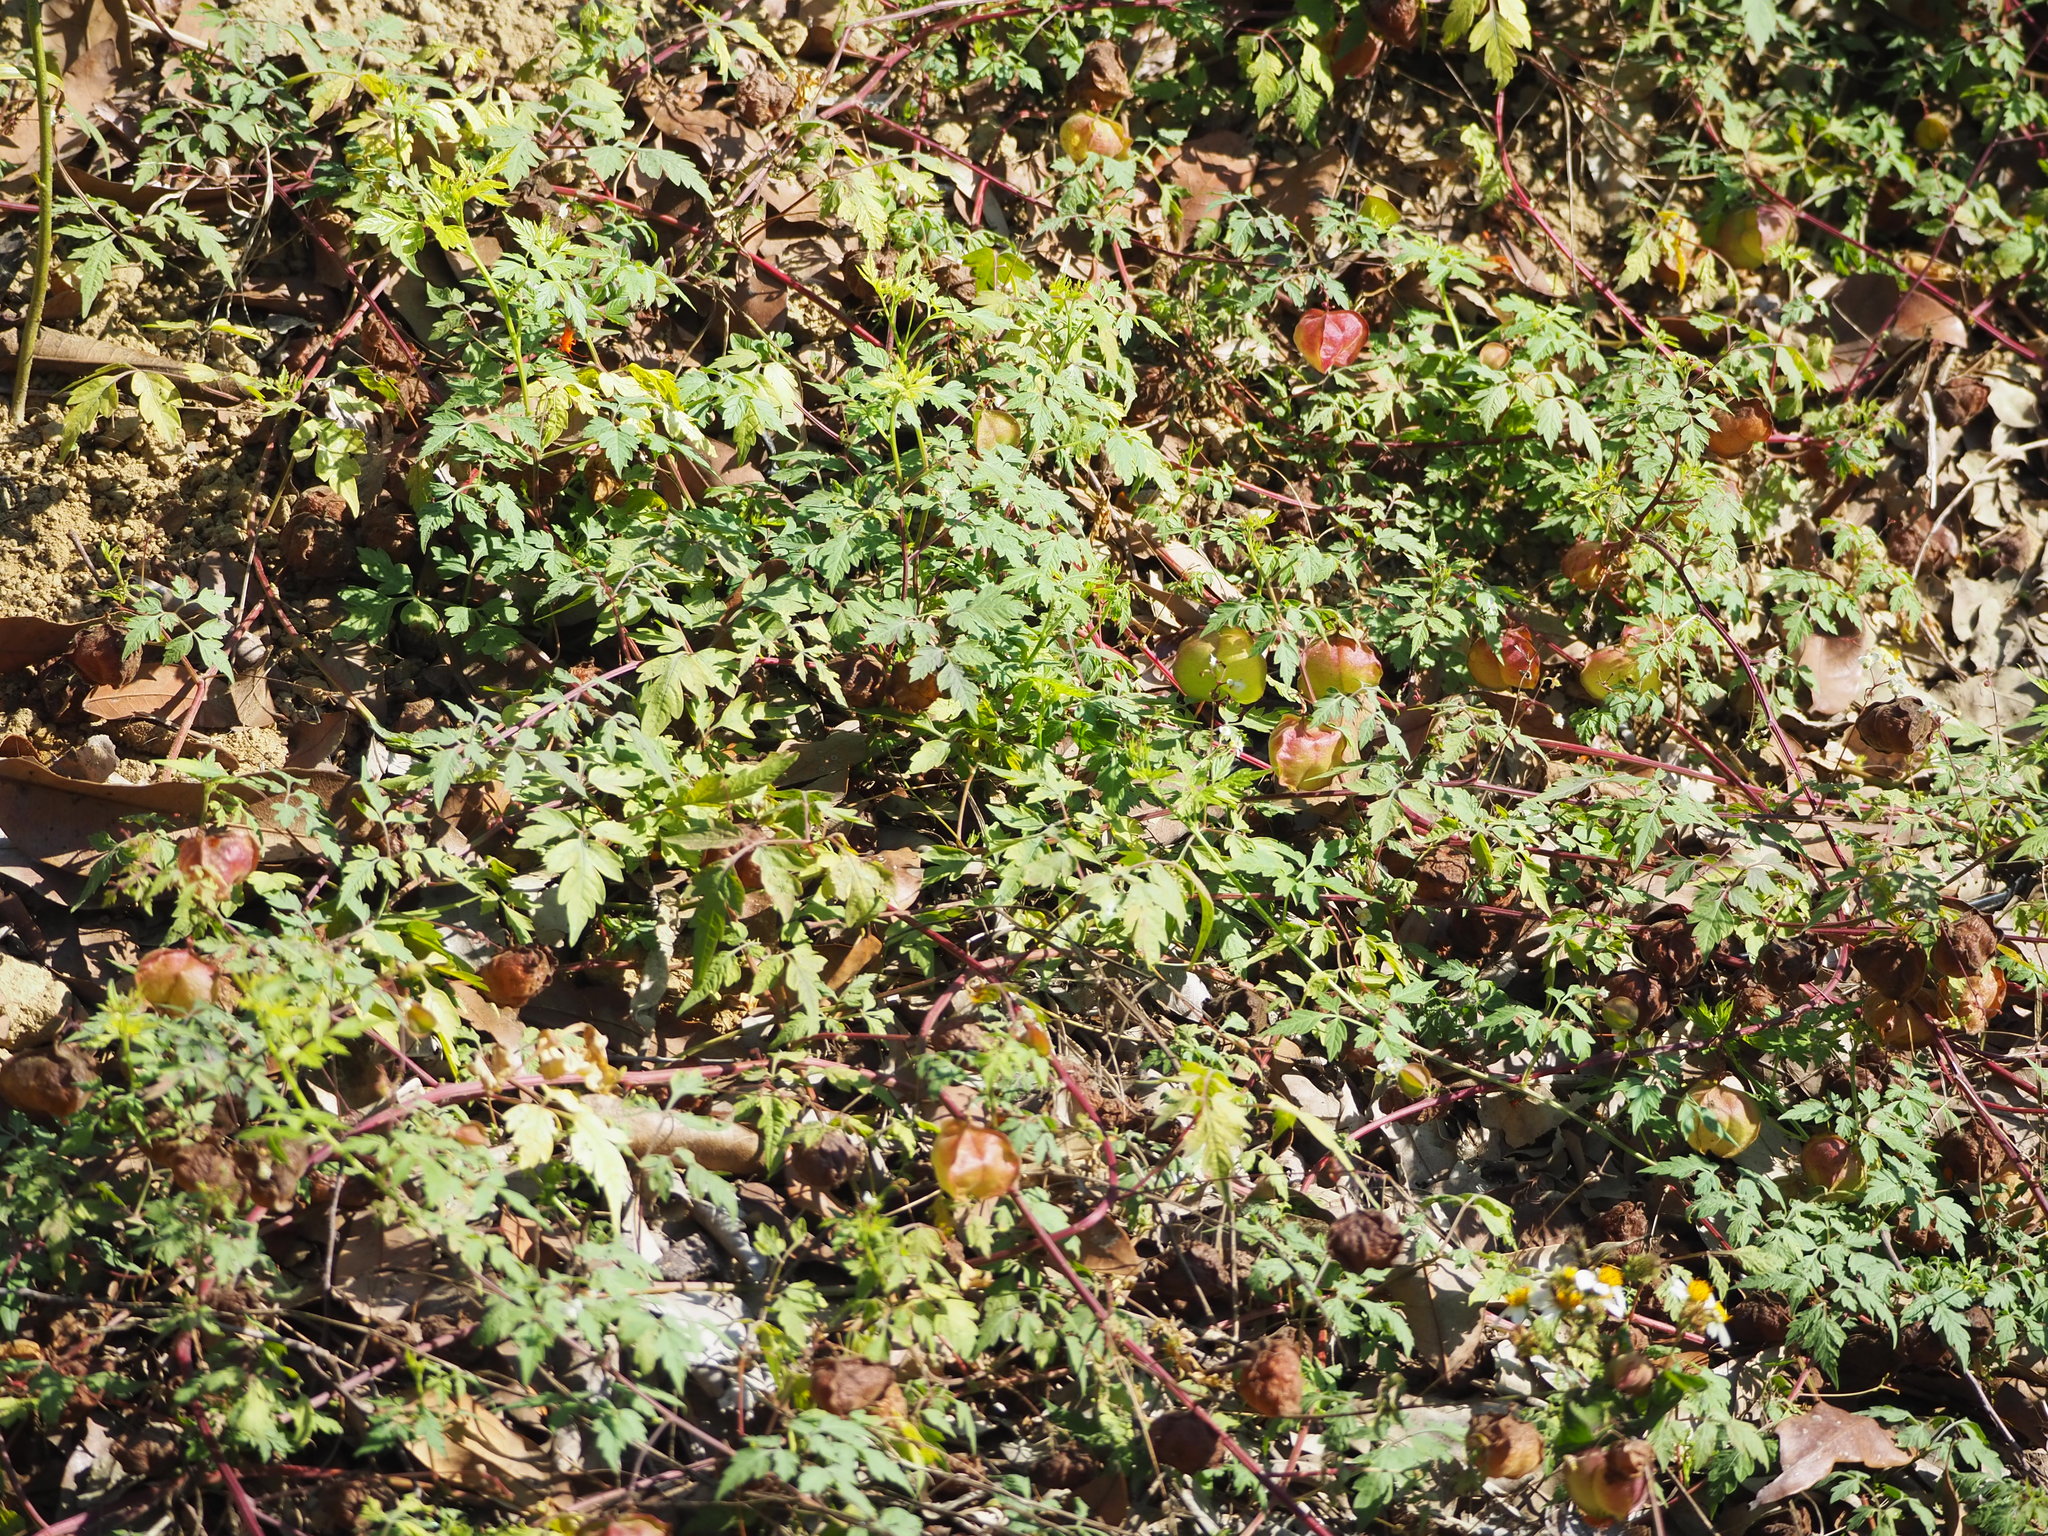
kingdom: Plantae
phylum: Tracheophyta
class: Magnoliopsida
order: Sapindales
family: Sapindaceae
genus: Cardiospermum
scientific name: Cardiospermum halicacabum
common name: Balloon vine
